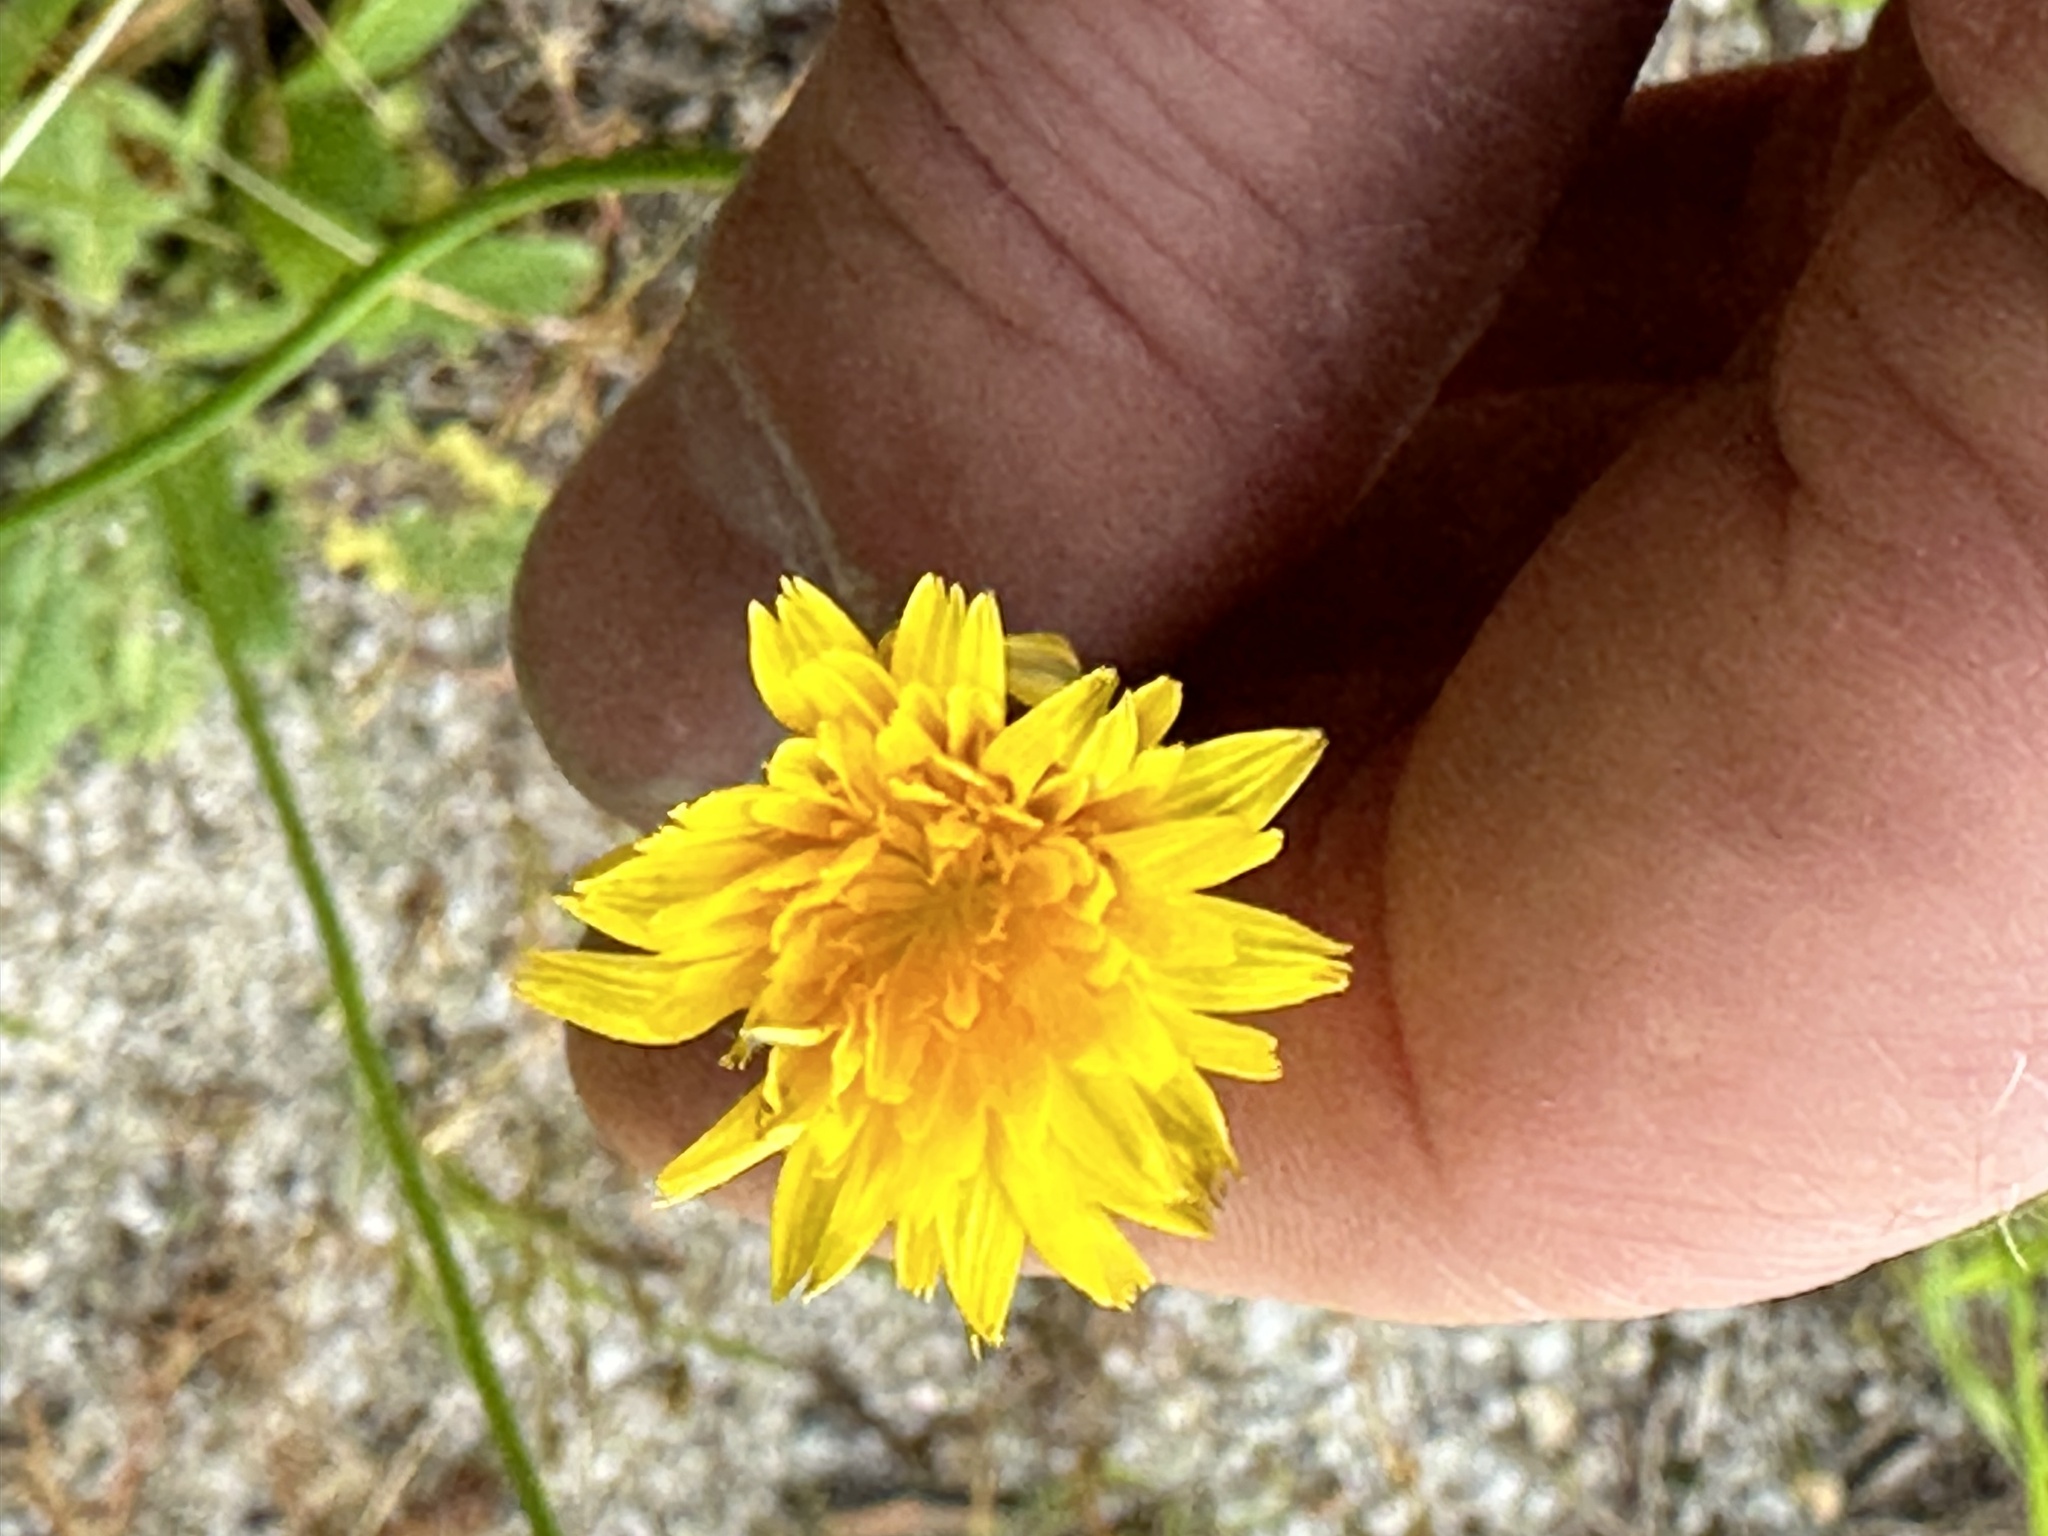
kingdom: Plantae
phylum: Tracheophyta
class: Magnoliopsida
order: Asterales
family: Asteraceae
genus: Hypochaeris
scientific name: Hypochaeris radicata
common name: Flatweed
